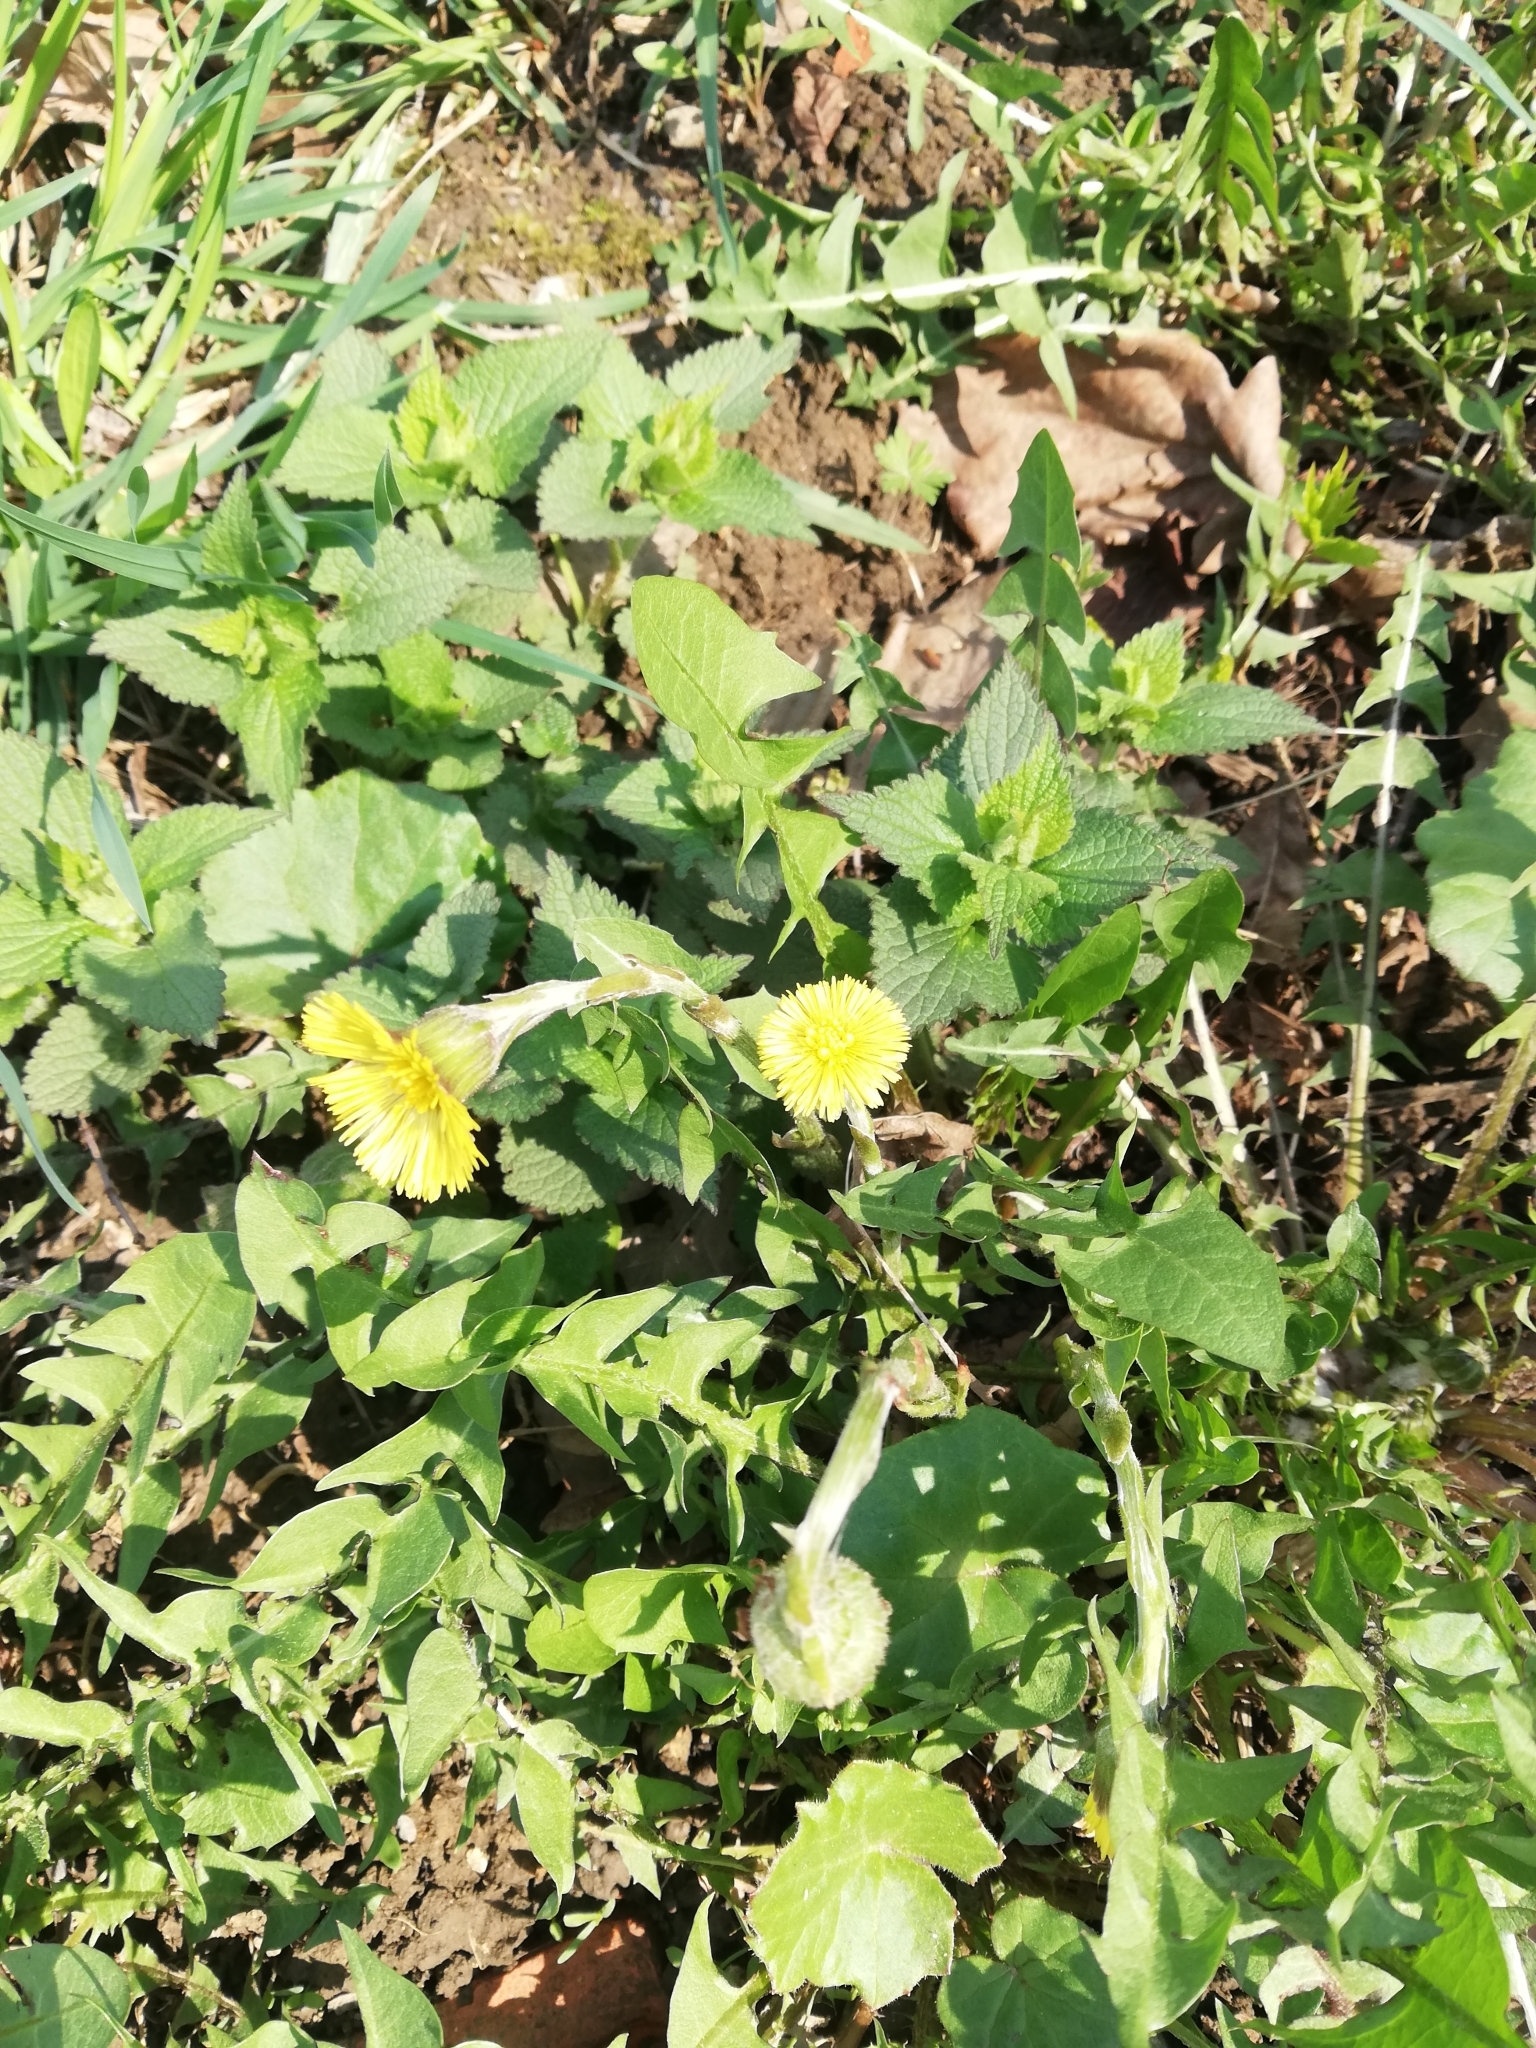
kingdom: Plantae
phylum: Tracheophyta
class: Magnoliopsida
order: Asterales
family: Asteraceae
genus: Tussilago
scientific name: Tussilago farfara
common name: Coltsfoot
